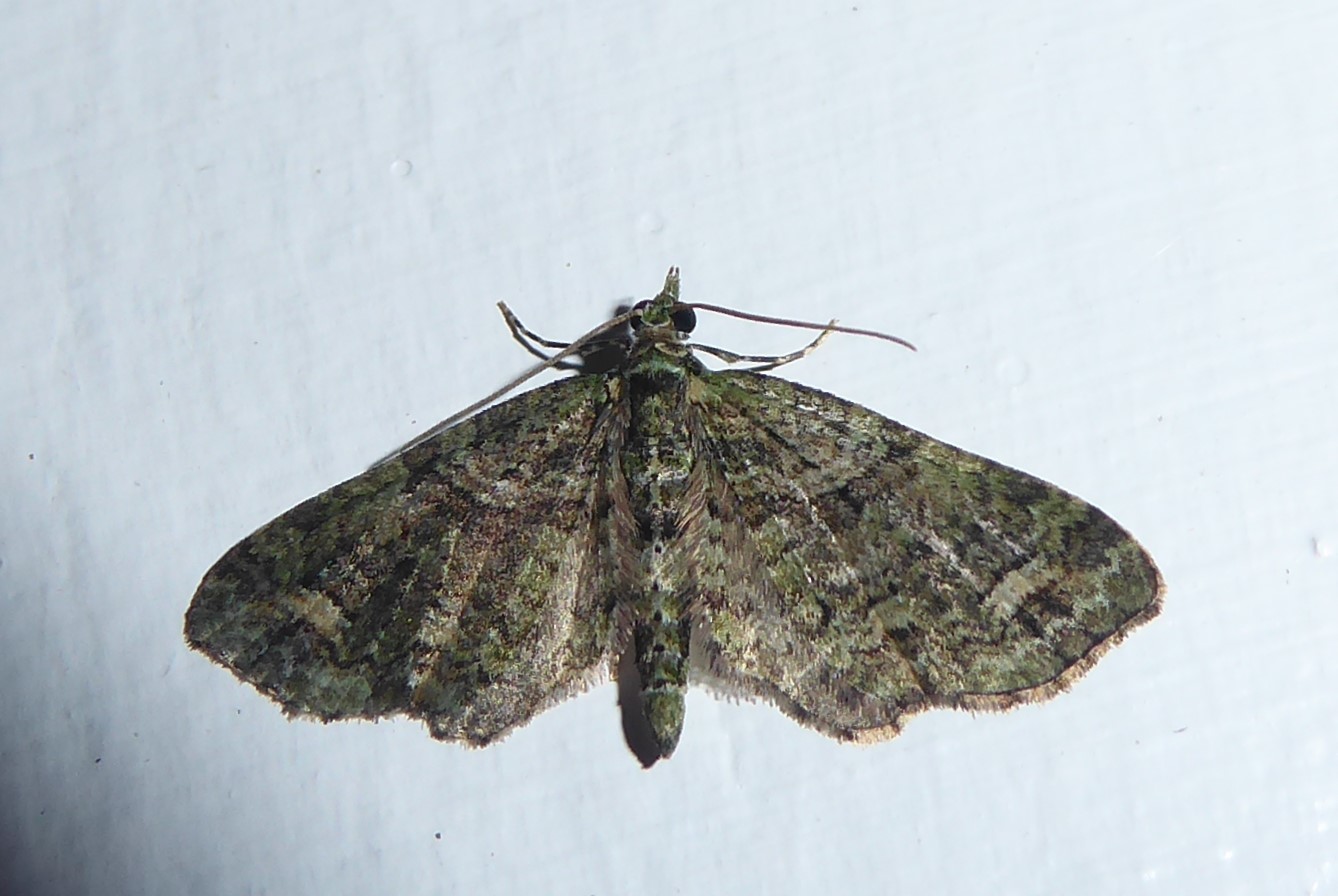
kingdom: Animalia
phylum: Arthropoda
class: Insecta
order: Lepidoptera
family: Geometridae
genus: Idaea
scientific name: Idaea mutanda
